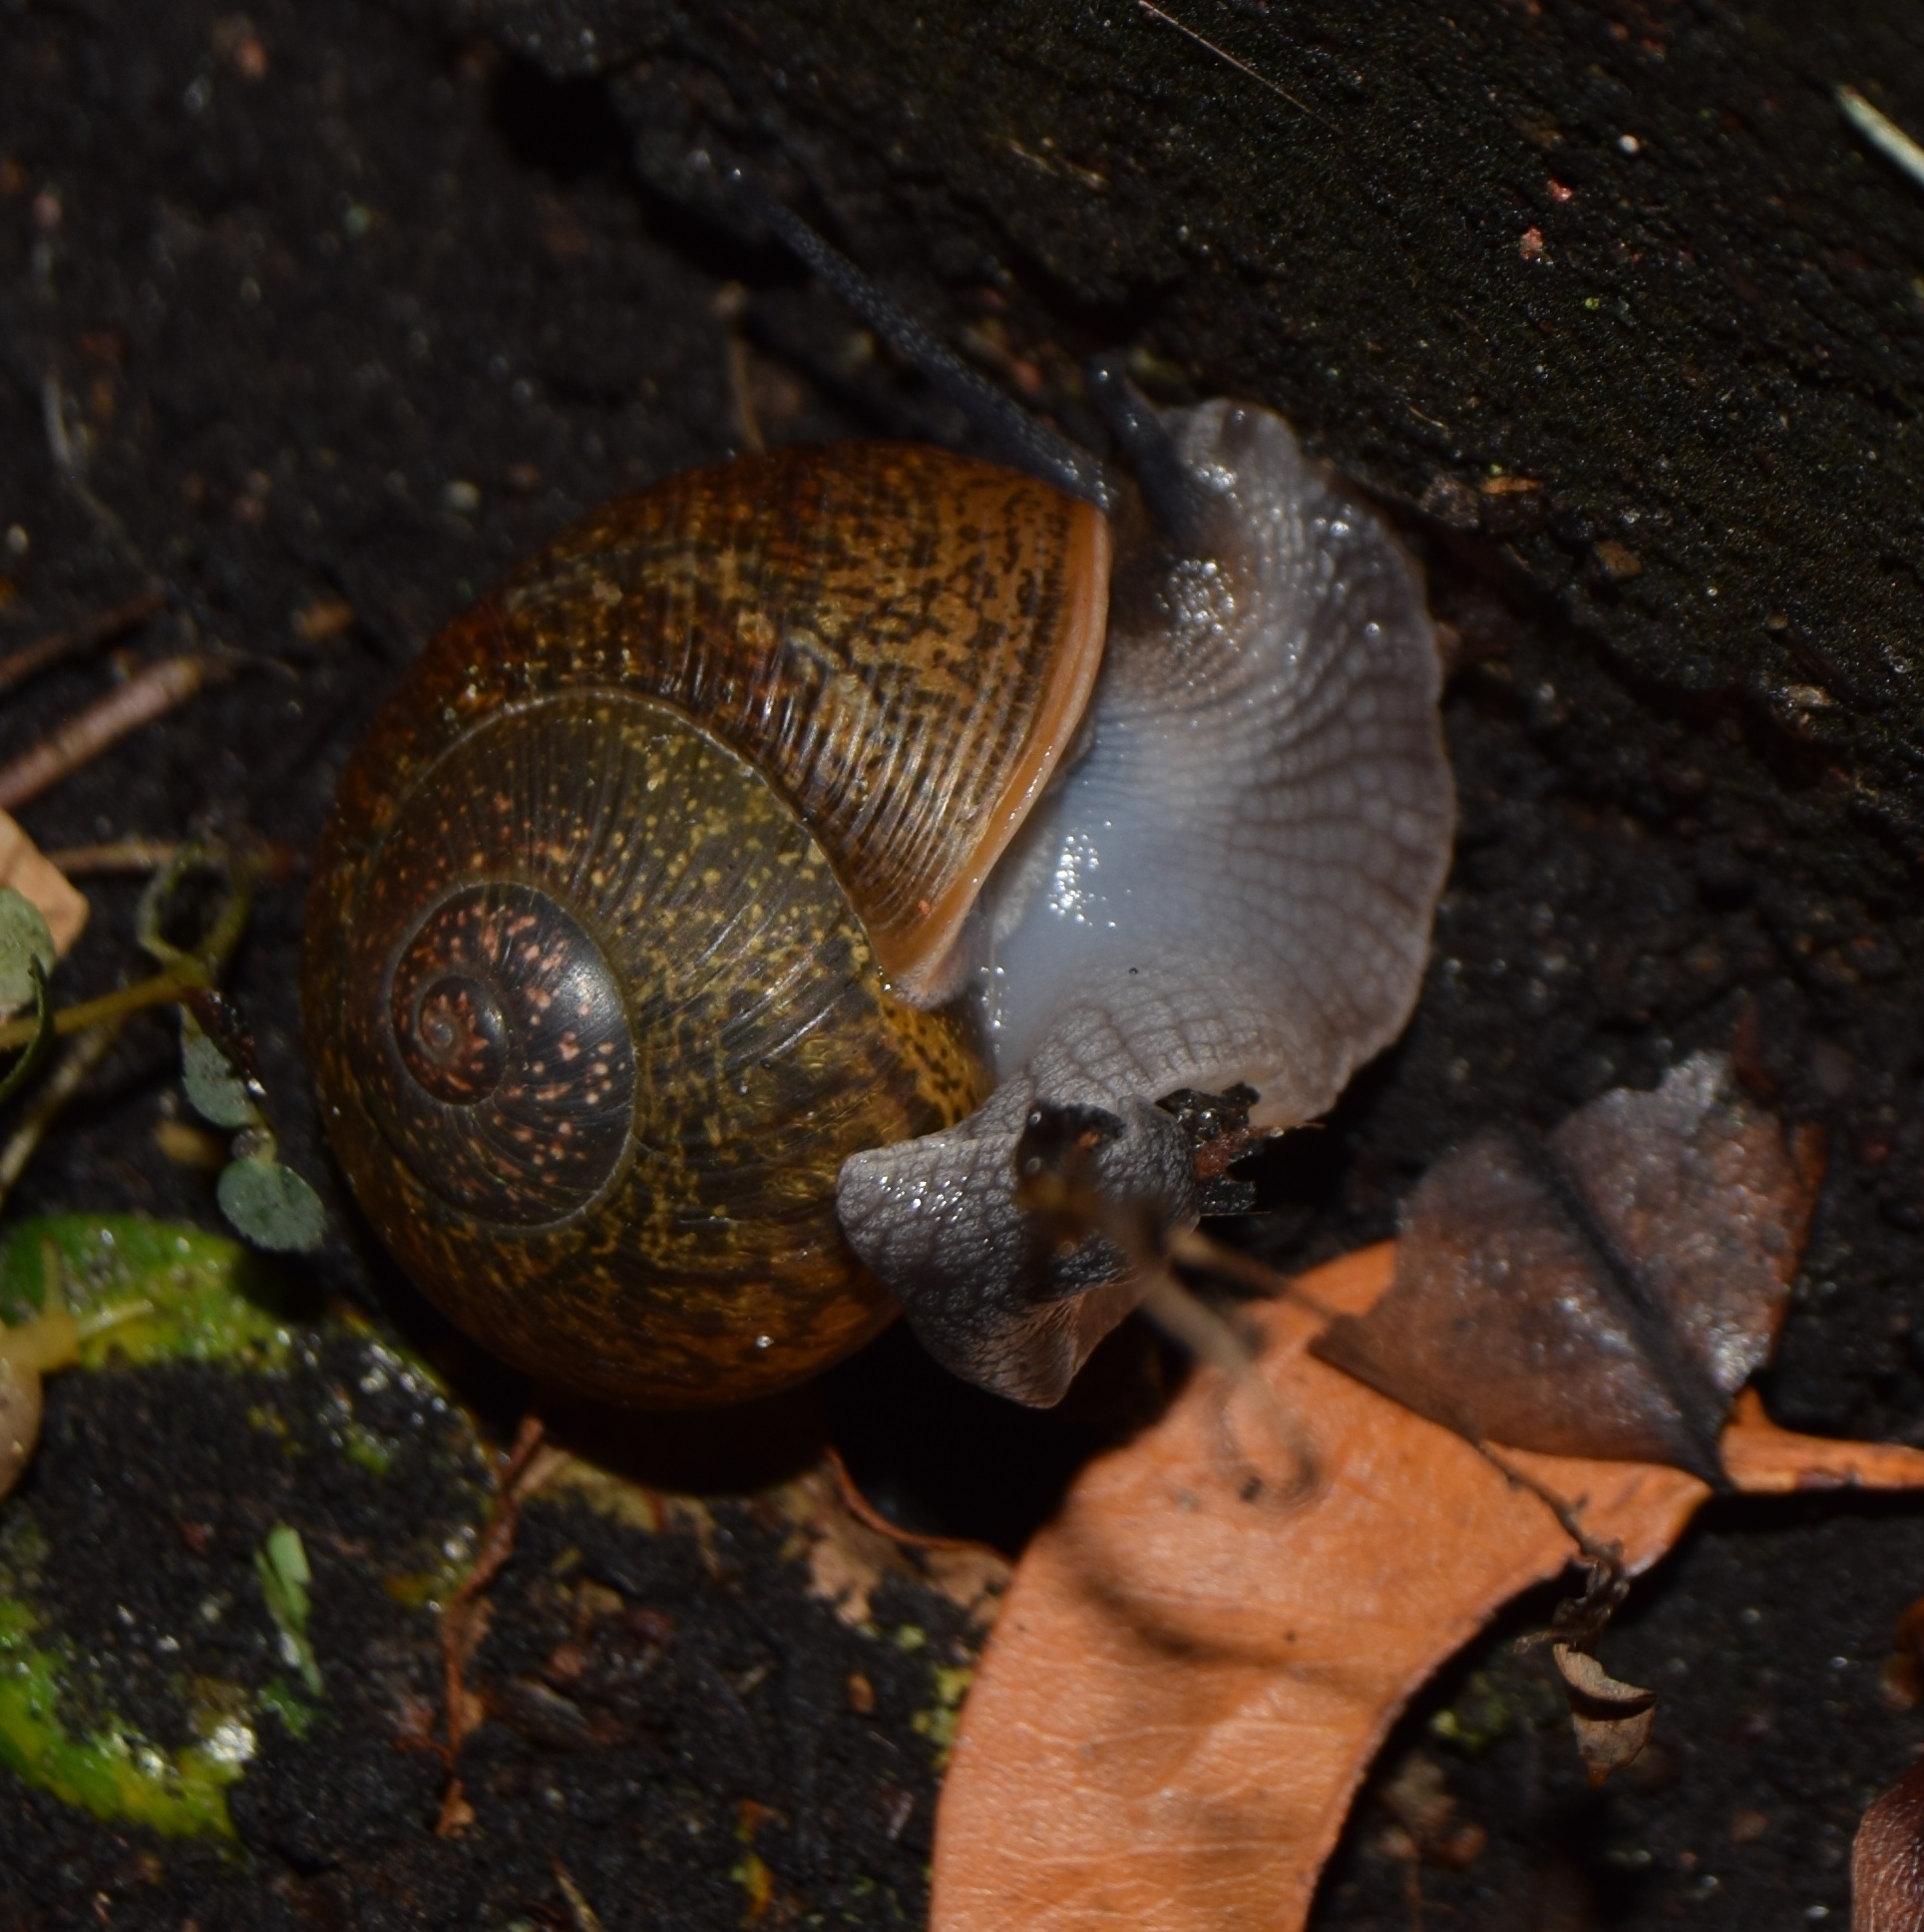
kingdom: Animalia
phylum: Mollusca
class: Gastropoda
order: Stylommatophora
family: Zachrysiidae
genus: Zachrysia
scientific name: Zachrysia provisoria
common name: Garden zachrysia
